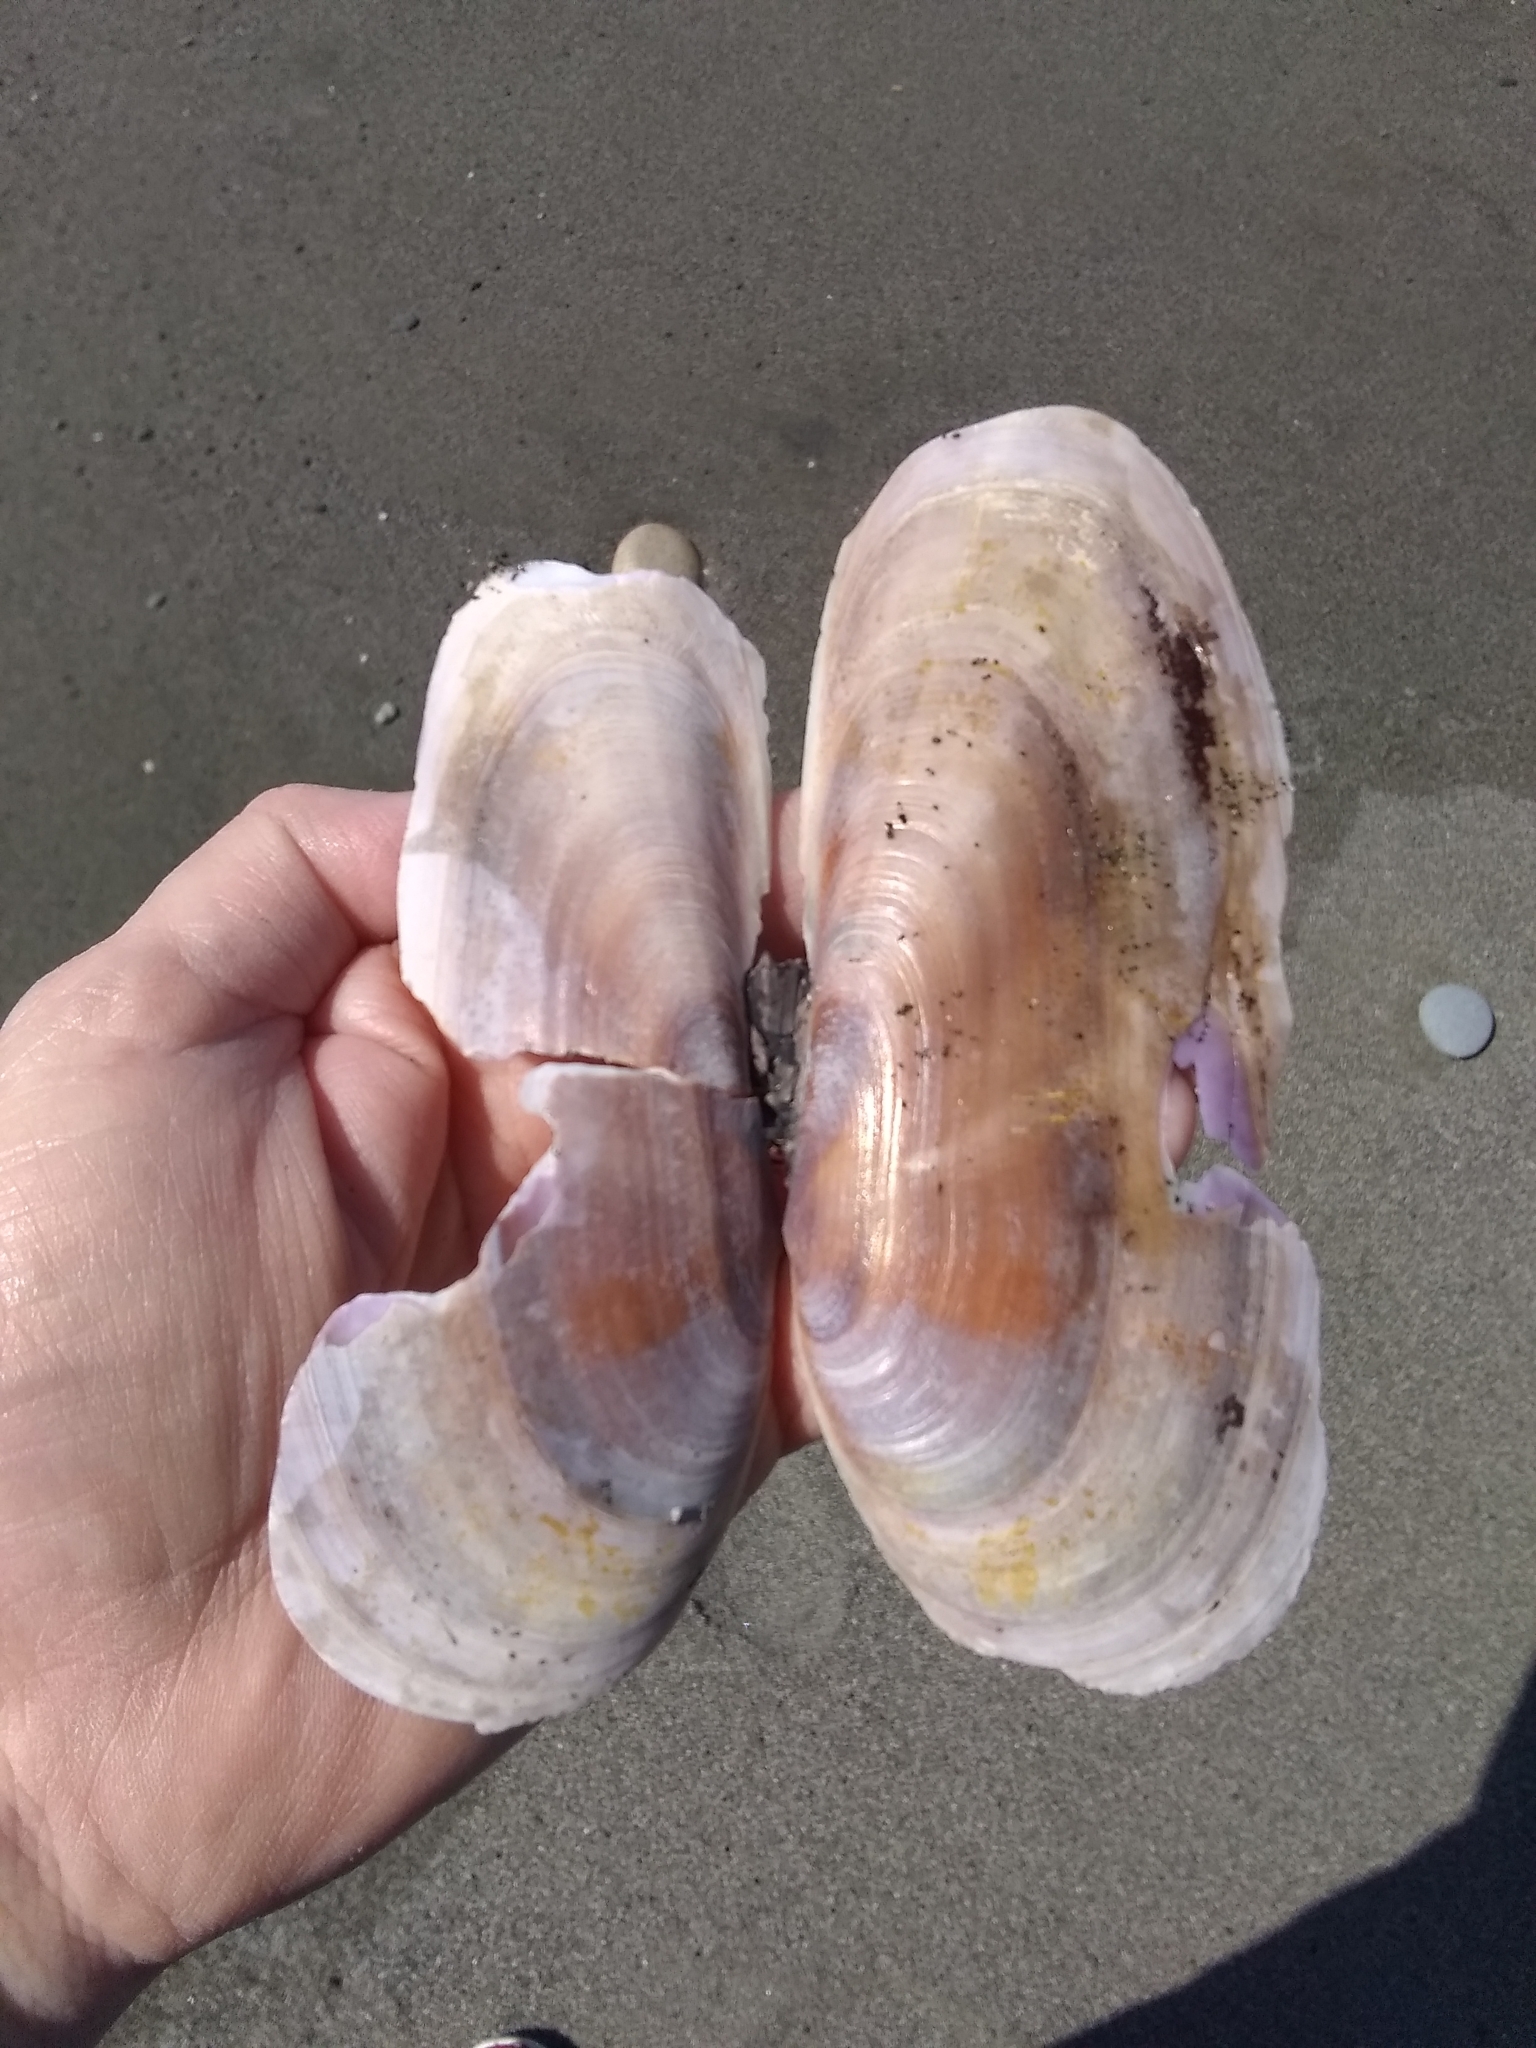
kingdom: Animalia
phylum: Mollusca
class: Bivalvia
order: Adapedonta
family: Pharidae
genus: Siliqua
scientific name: Siliqua patula
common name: Pacific razor clam
